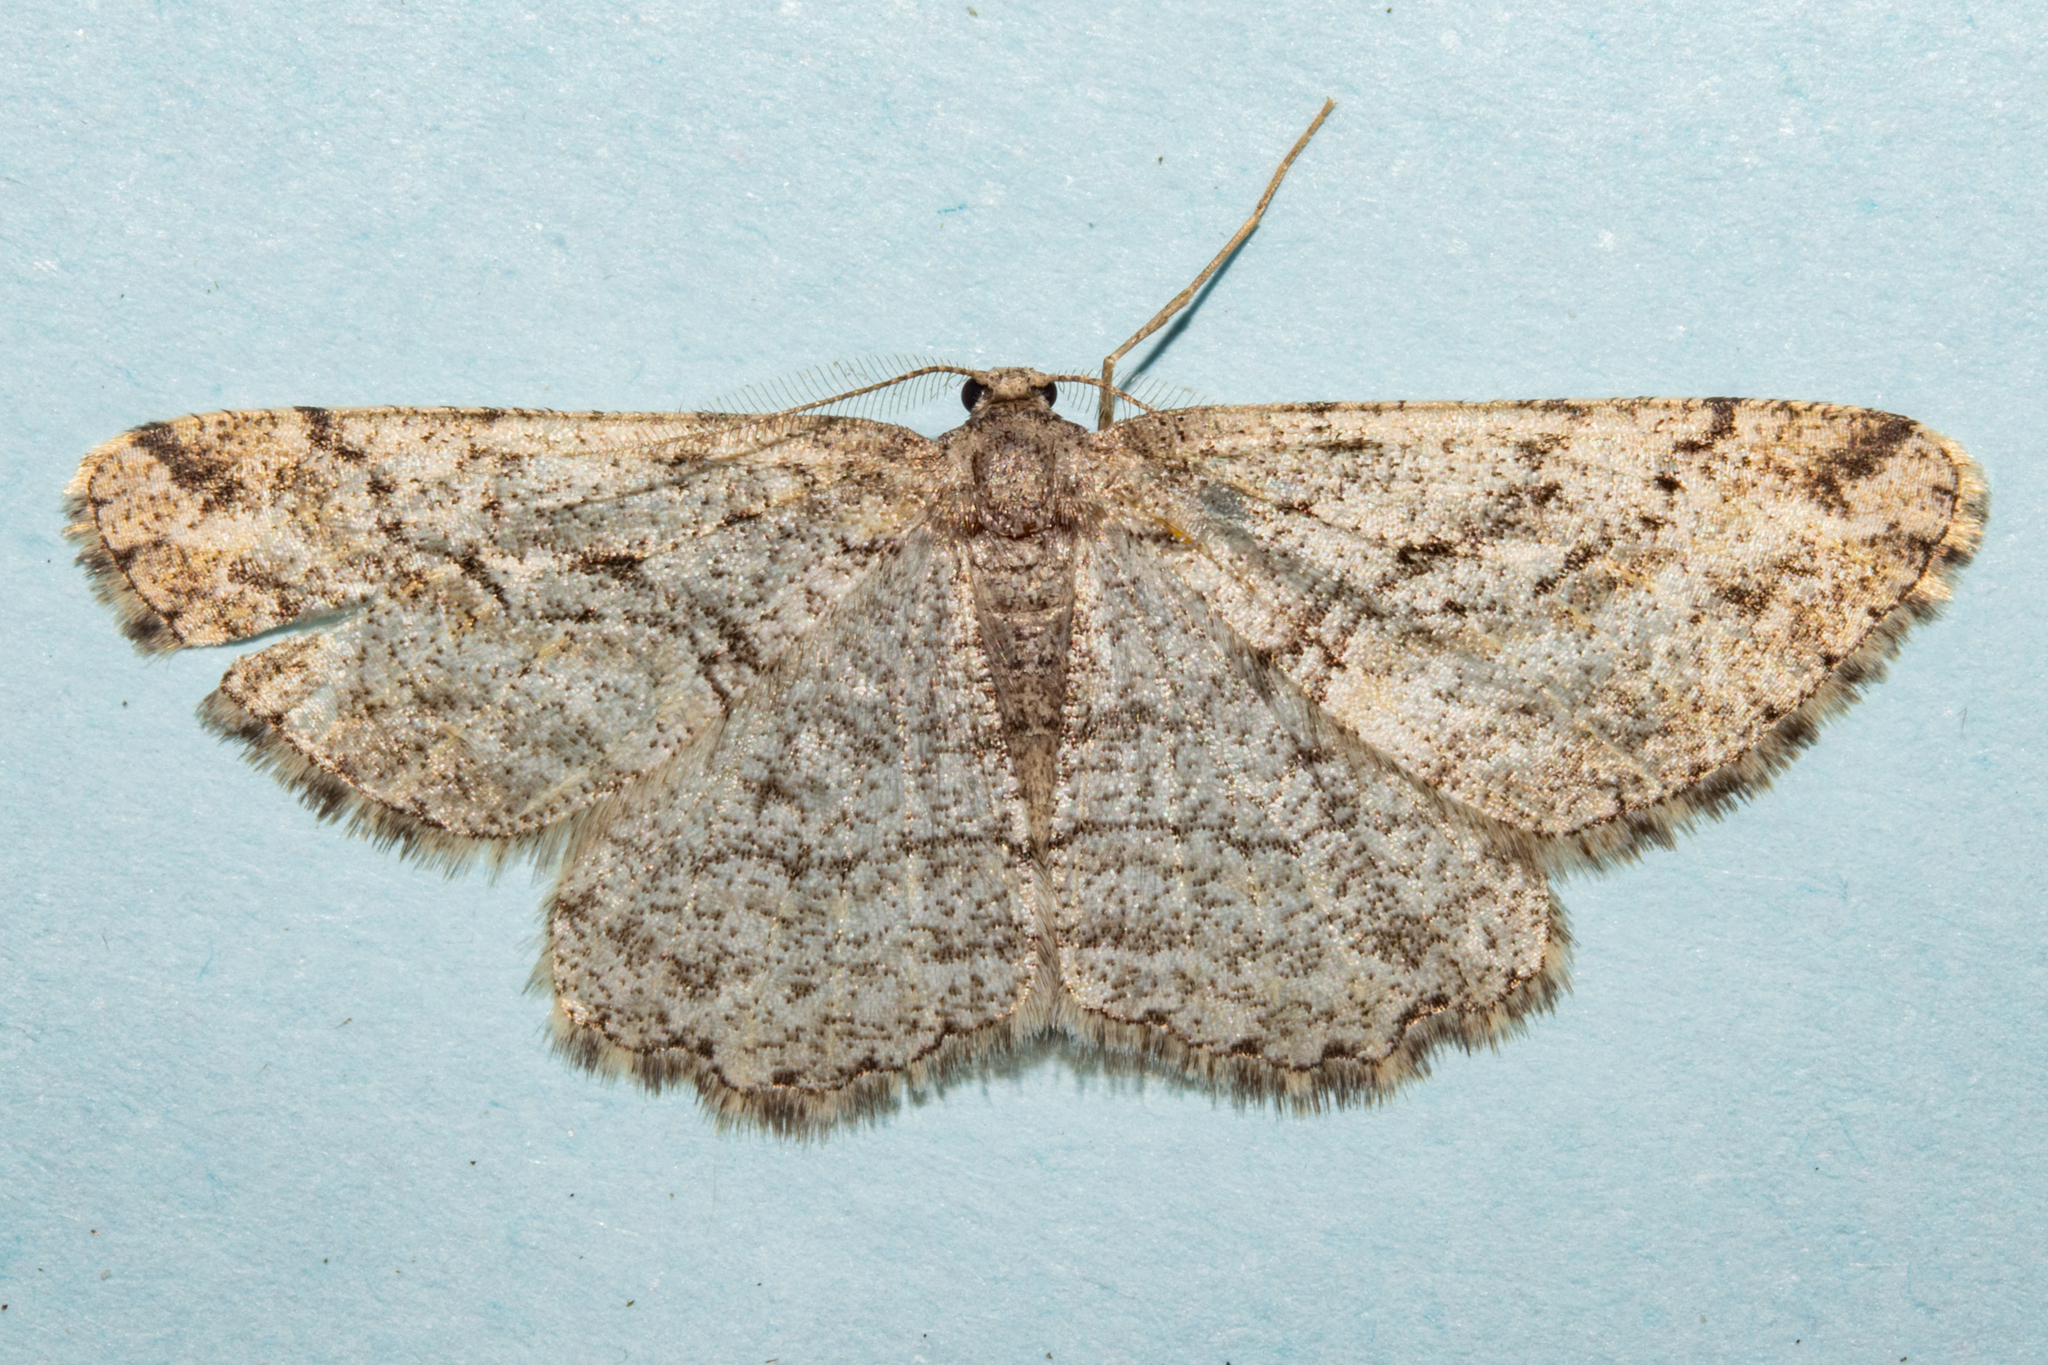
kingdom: Animalia
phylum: Arthropoda
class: Insecta
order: Lepidoptera
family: Geometridae
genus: Zermizinga
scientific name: Zermizinga indocilisaria
